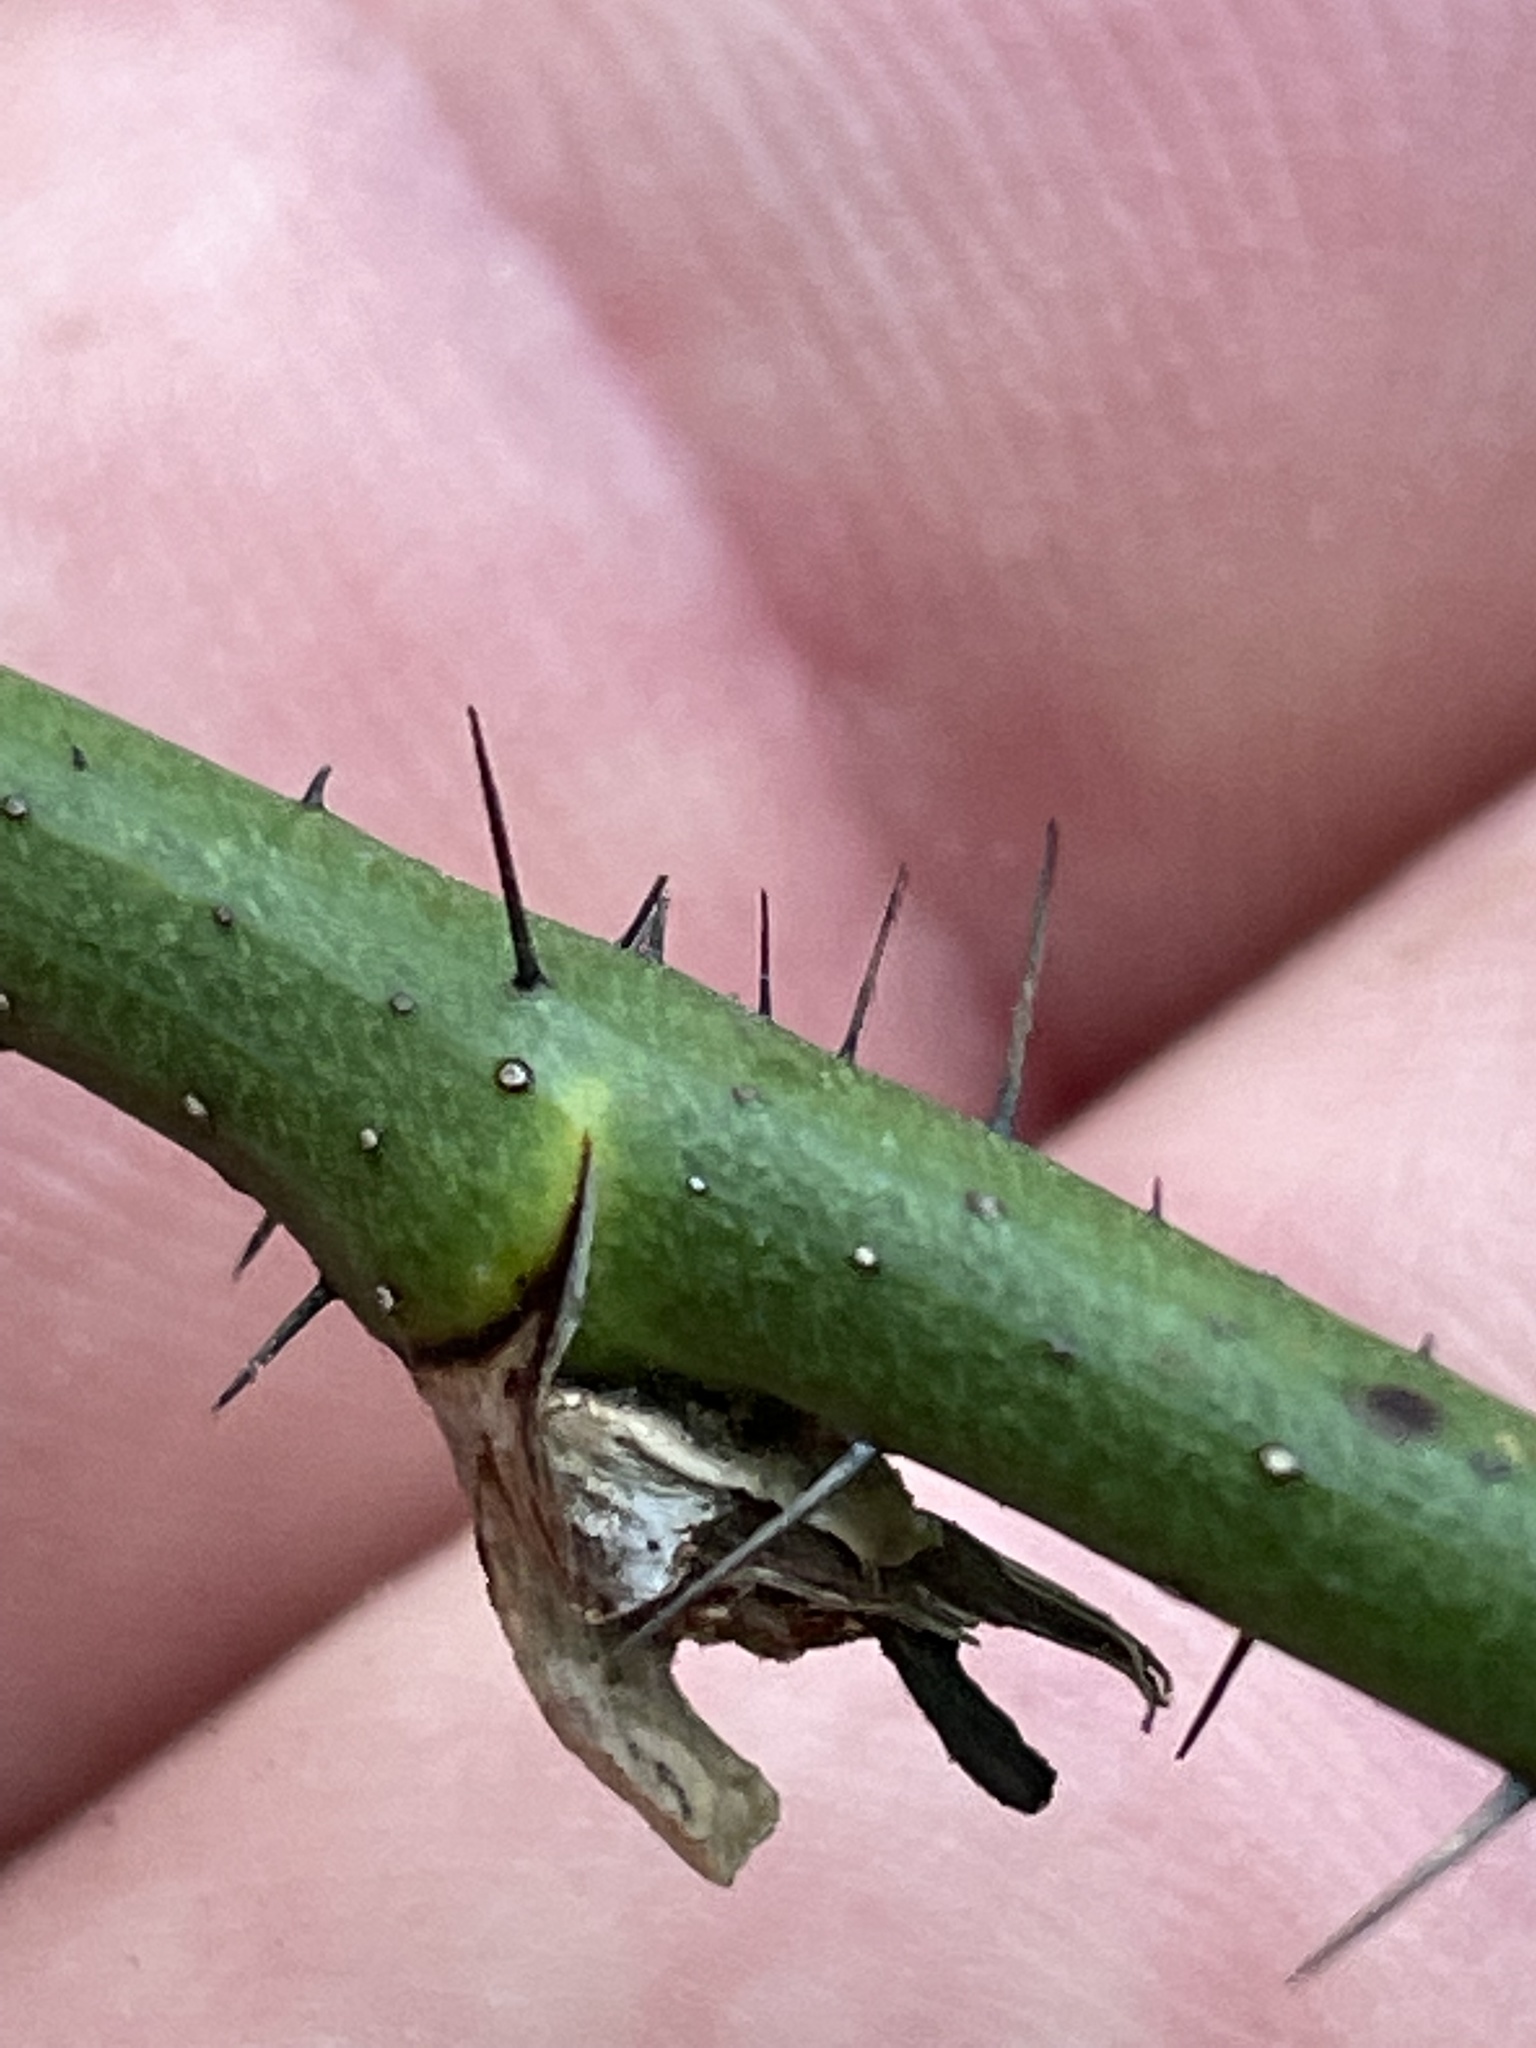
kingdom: Plantae
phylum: Tracheophyta
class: Liliopsida
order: Liliales
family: Smilacaceae
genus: Smilax
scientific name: Smilax tamnoides
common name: Hellfetter
